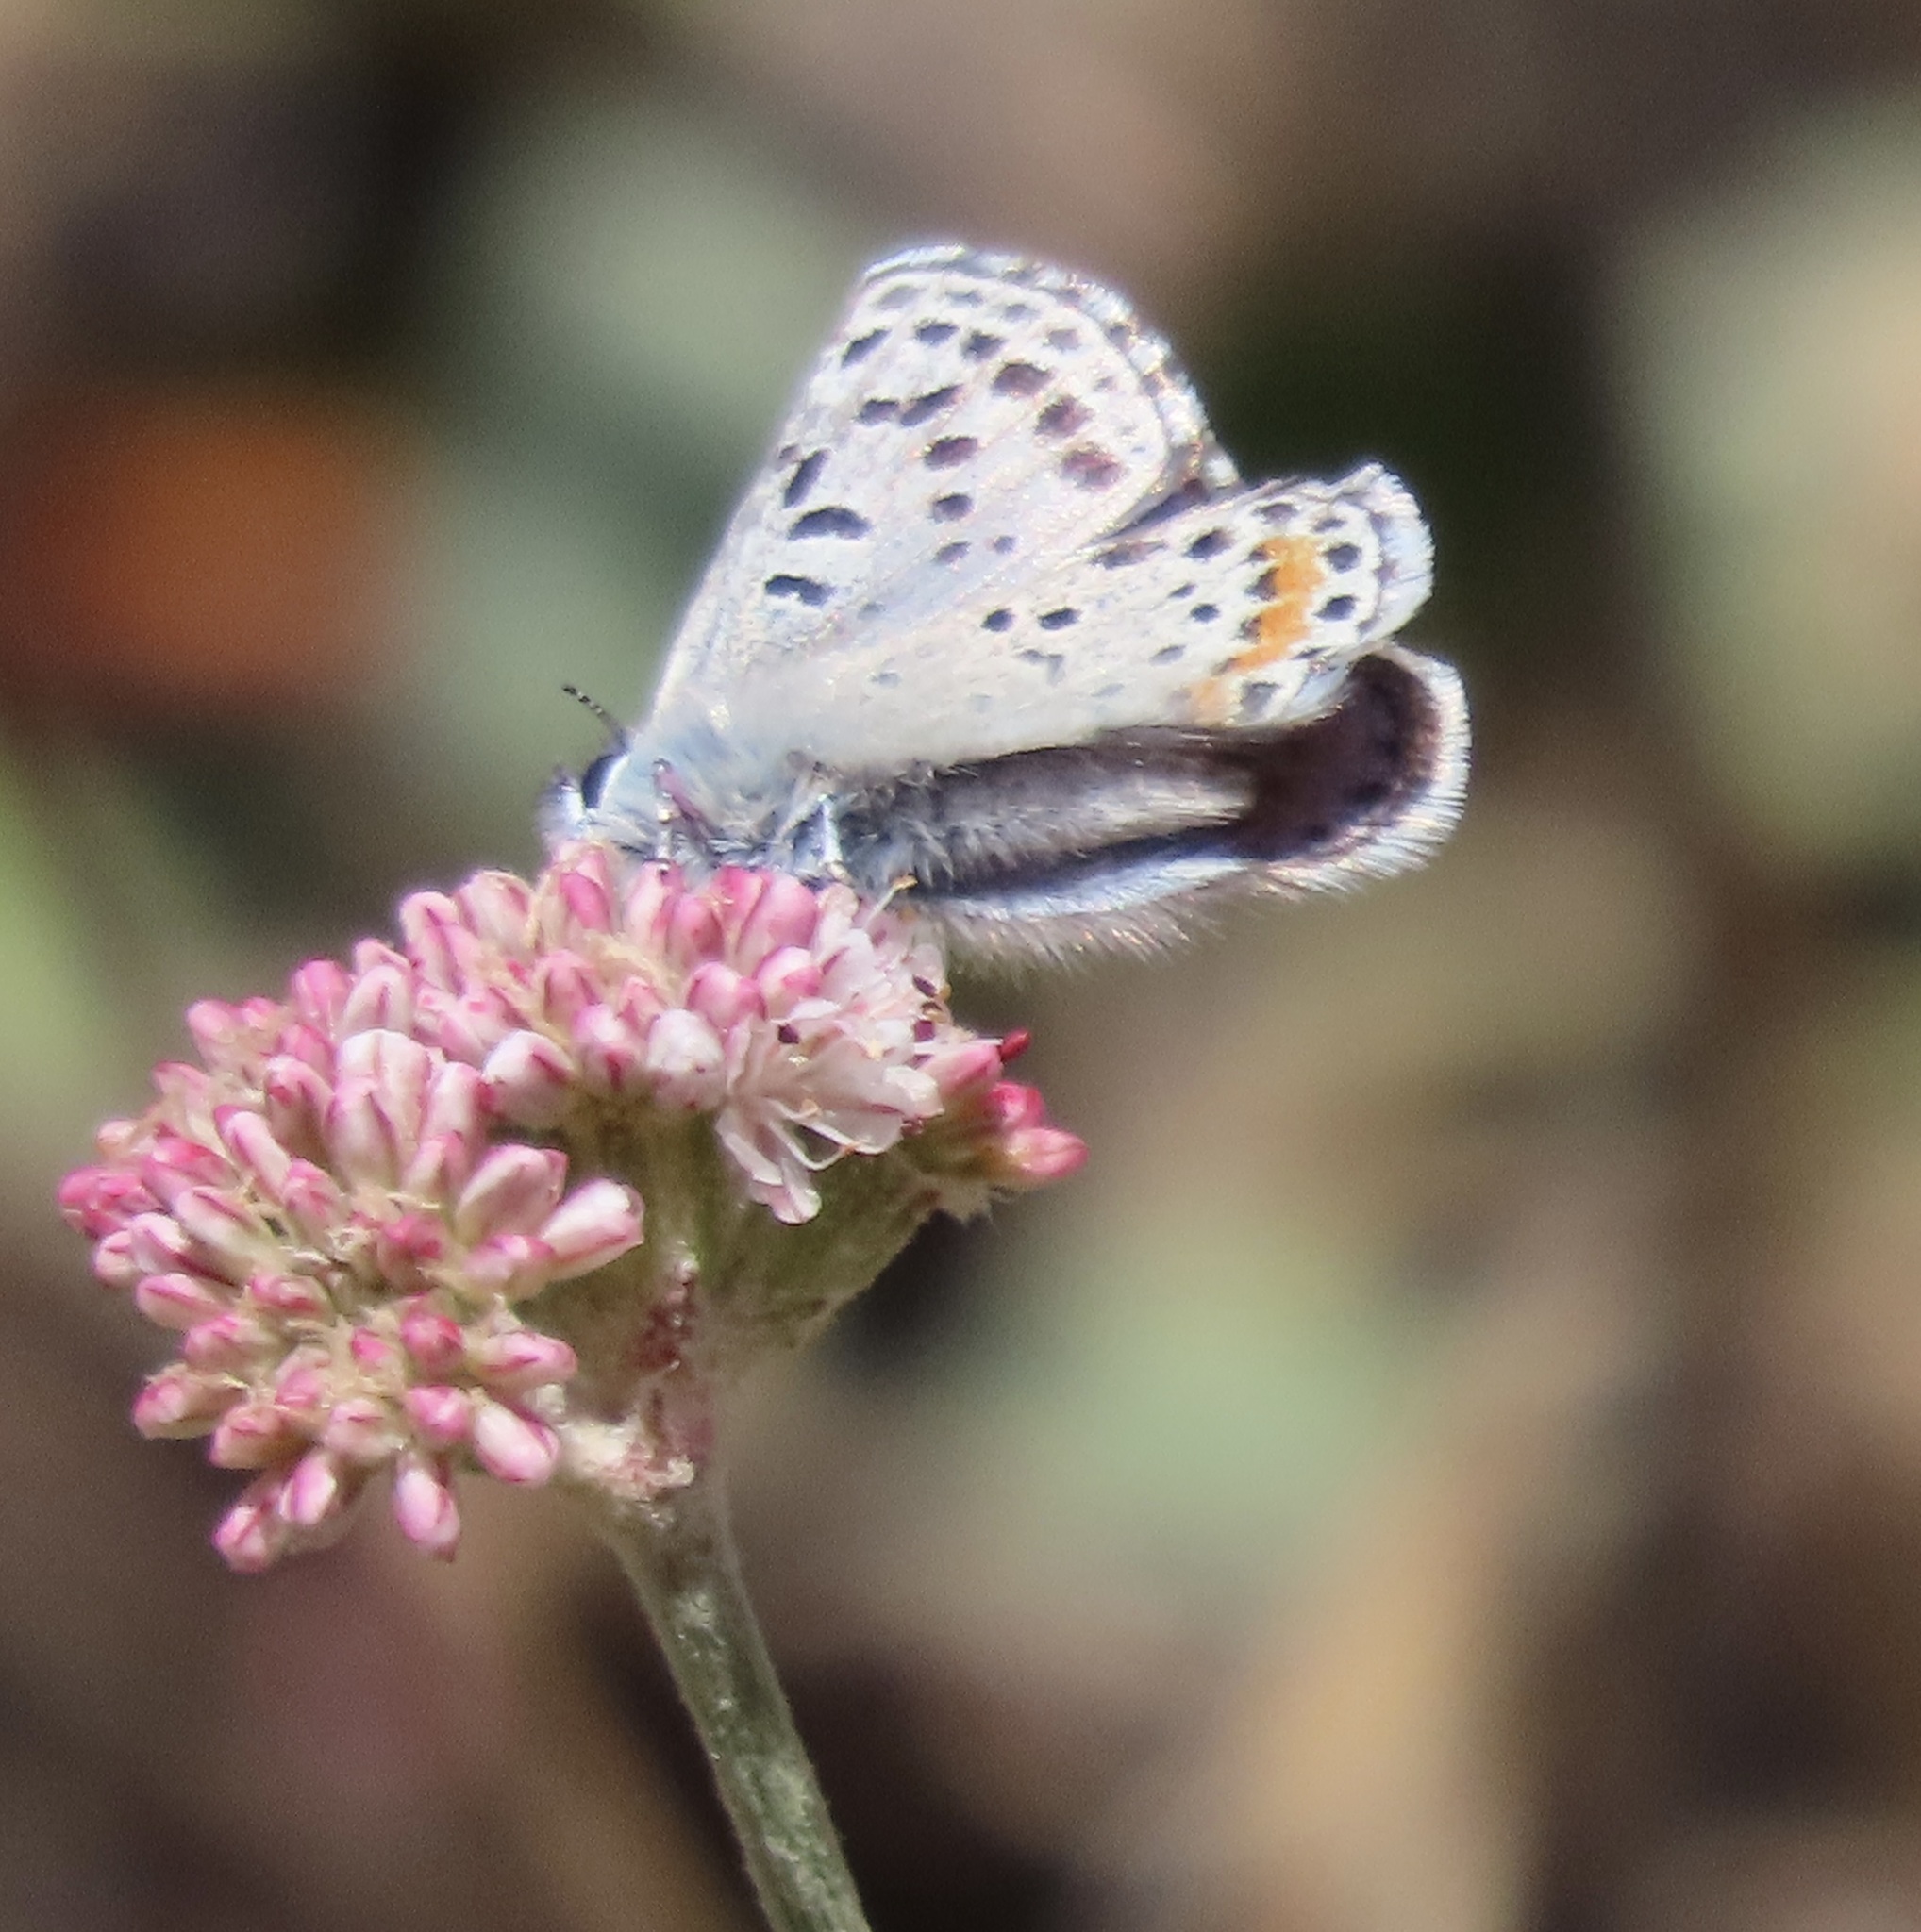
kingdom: Animalia
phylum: Arthropoda
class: Insecta
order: Lepidoptera
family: Lycaenidae
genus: Euphilotes
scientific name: Euphilotes enoptes
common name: Dotted blue
